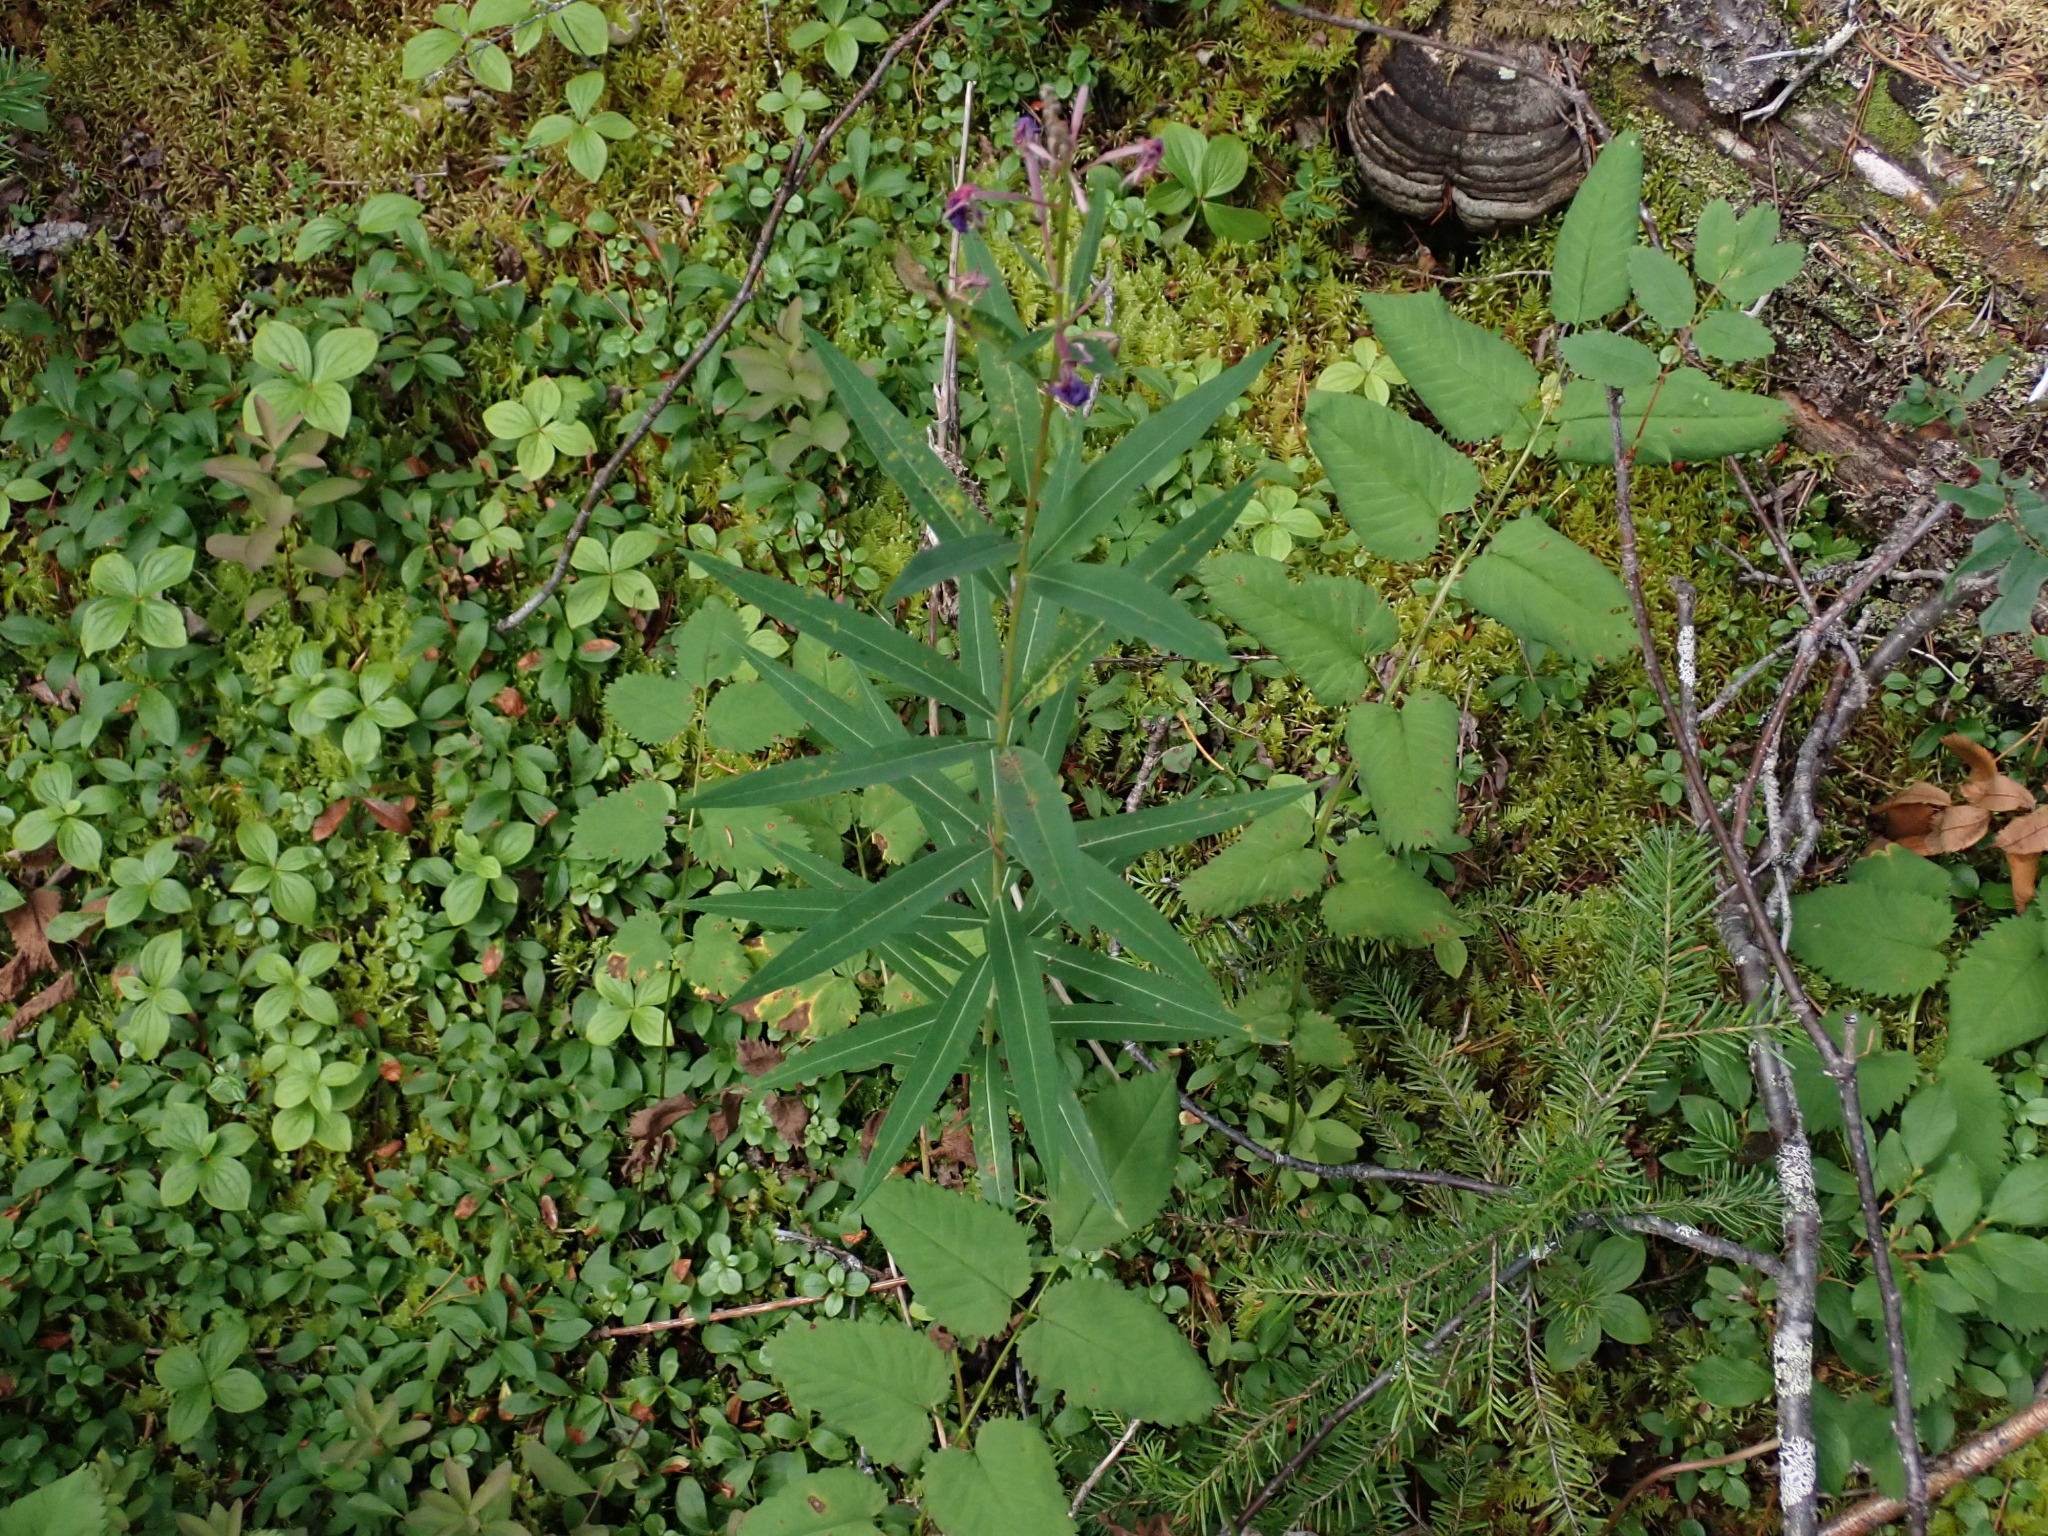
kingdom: Plantae
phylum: Tracheophyta
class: Magnoliopsida
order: Myrtales
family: Onagraceae
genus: Chamaenerion
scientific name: Chamaenerion angustifolium
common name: Fireweed
